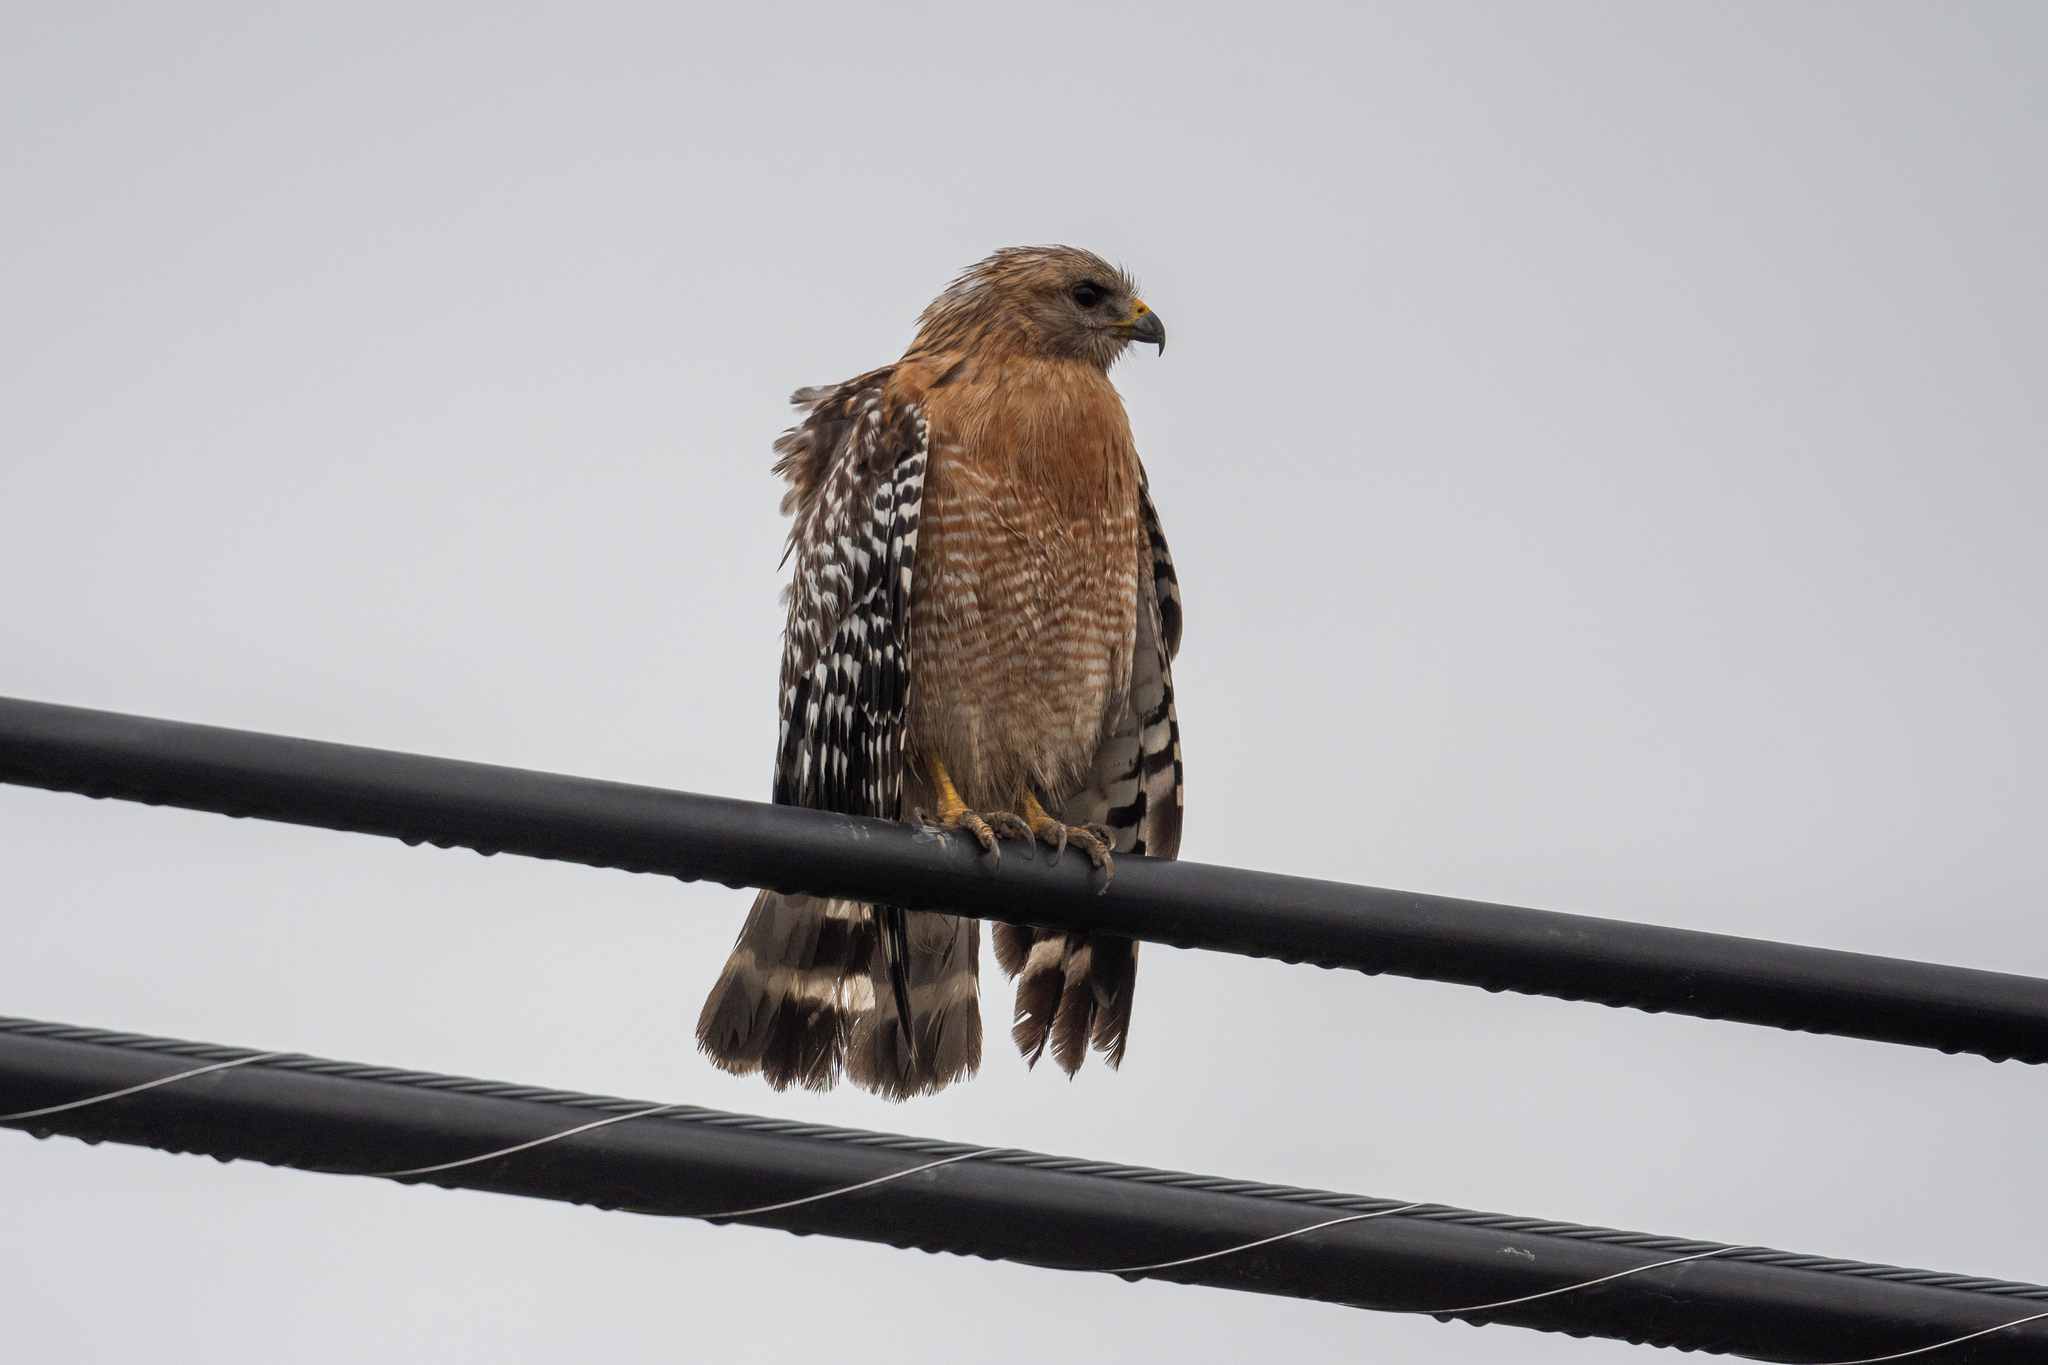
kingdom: Animalia
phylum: Chordata
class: Aves
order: Accipitriformes
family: Accipitridae
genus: Buteo
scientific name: Buteo lineatus
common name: Red-shouldered hawk
